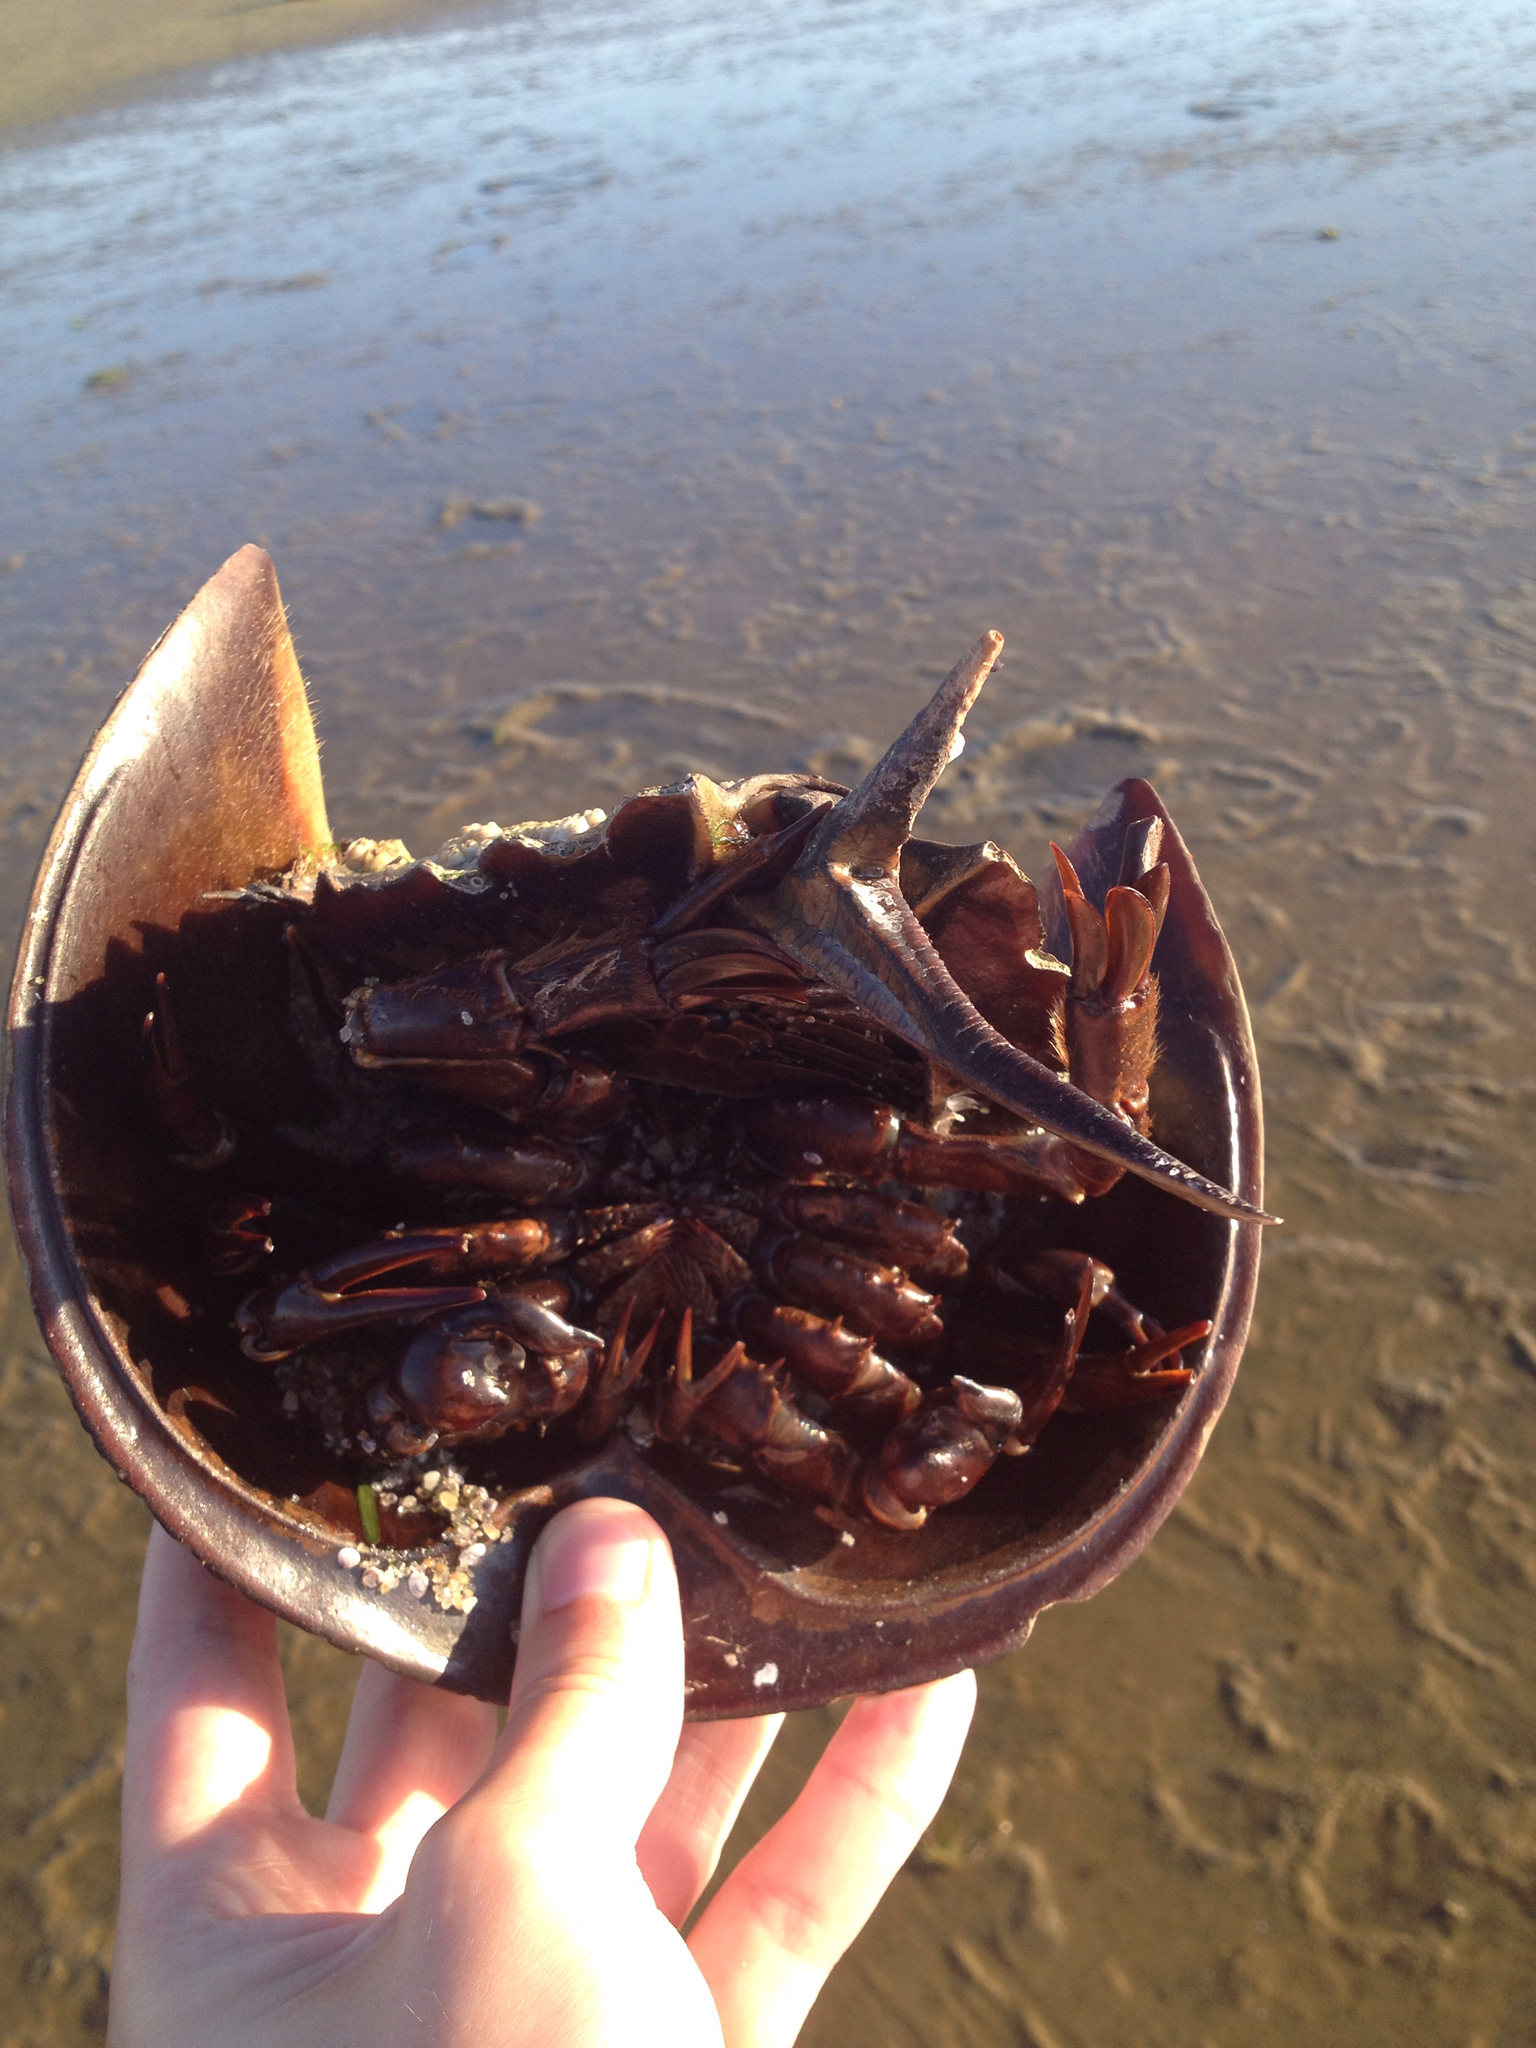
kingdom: Animalia
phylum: Arthropoda
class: Merostomata
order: Xiphosurida
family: Limulidae
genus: Limulus
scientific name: Limulus polyphemus
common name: Horseshoe crab
